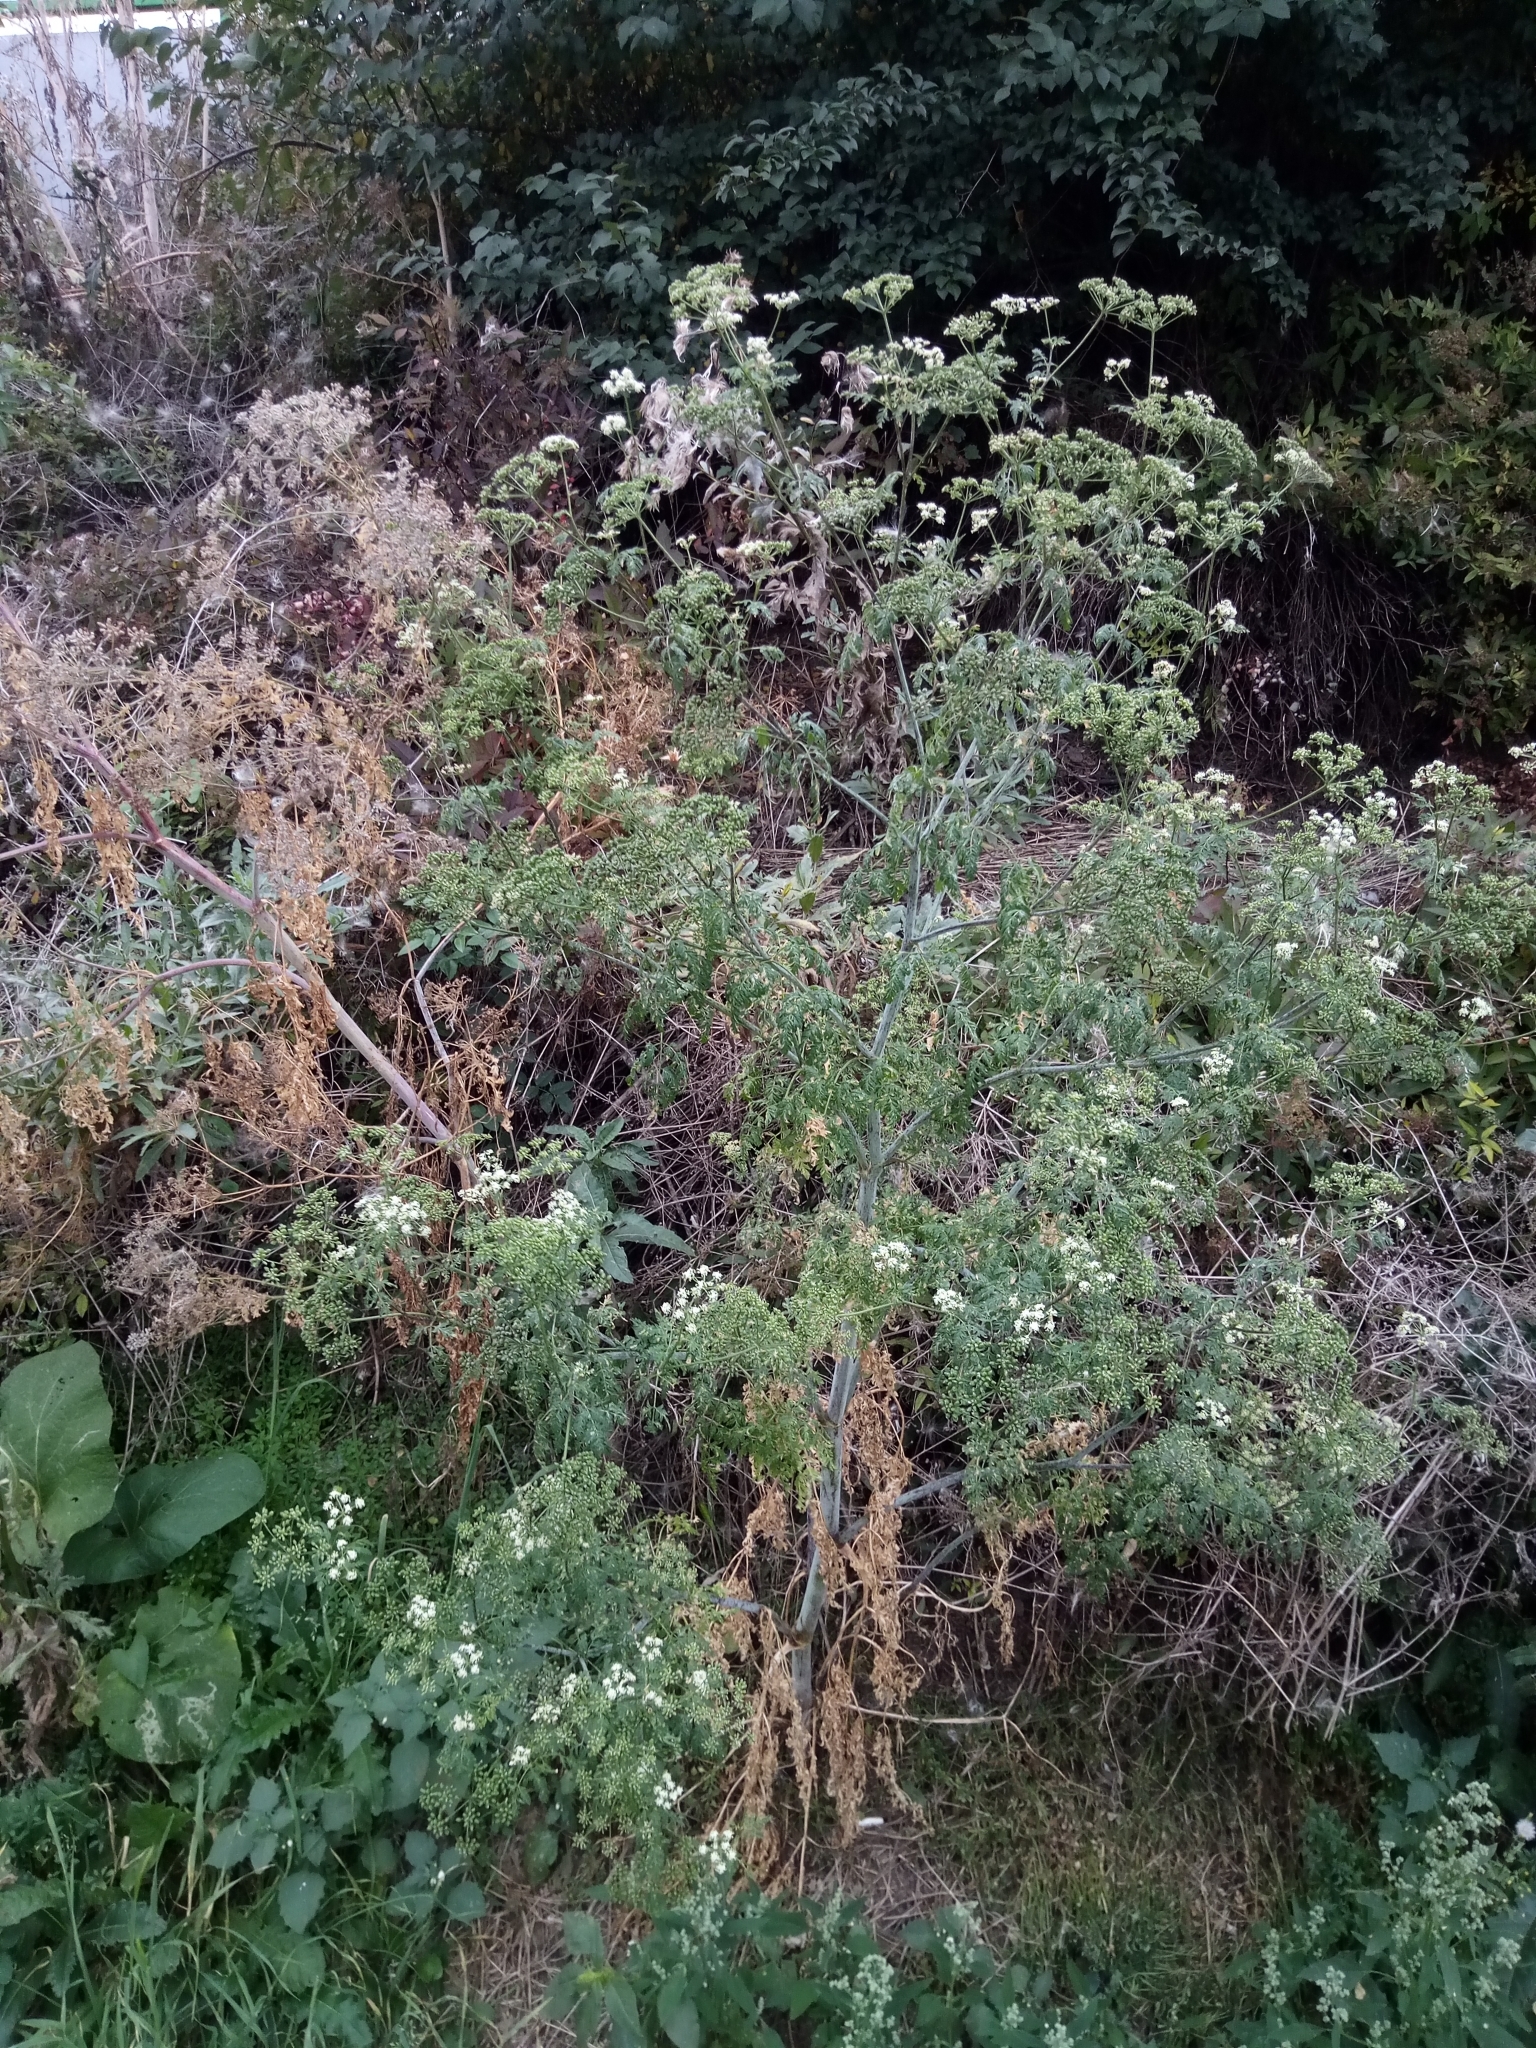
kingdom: Plantae
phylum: Tracheophyta
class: Magnoliopsida
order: Apiales
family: Apiaceae
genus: Conium
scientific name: Conium maculatum
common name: Hemlock
